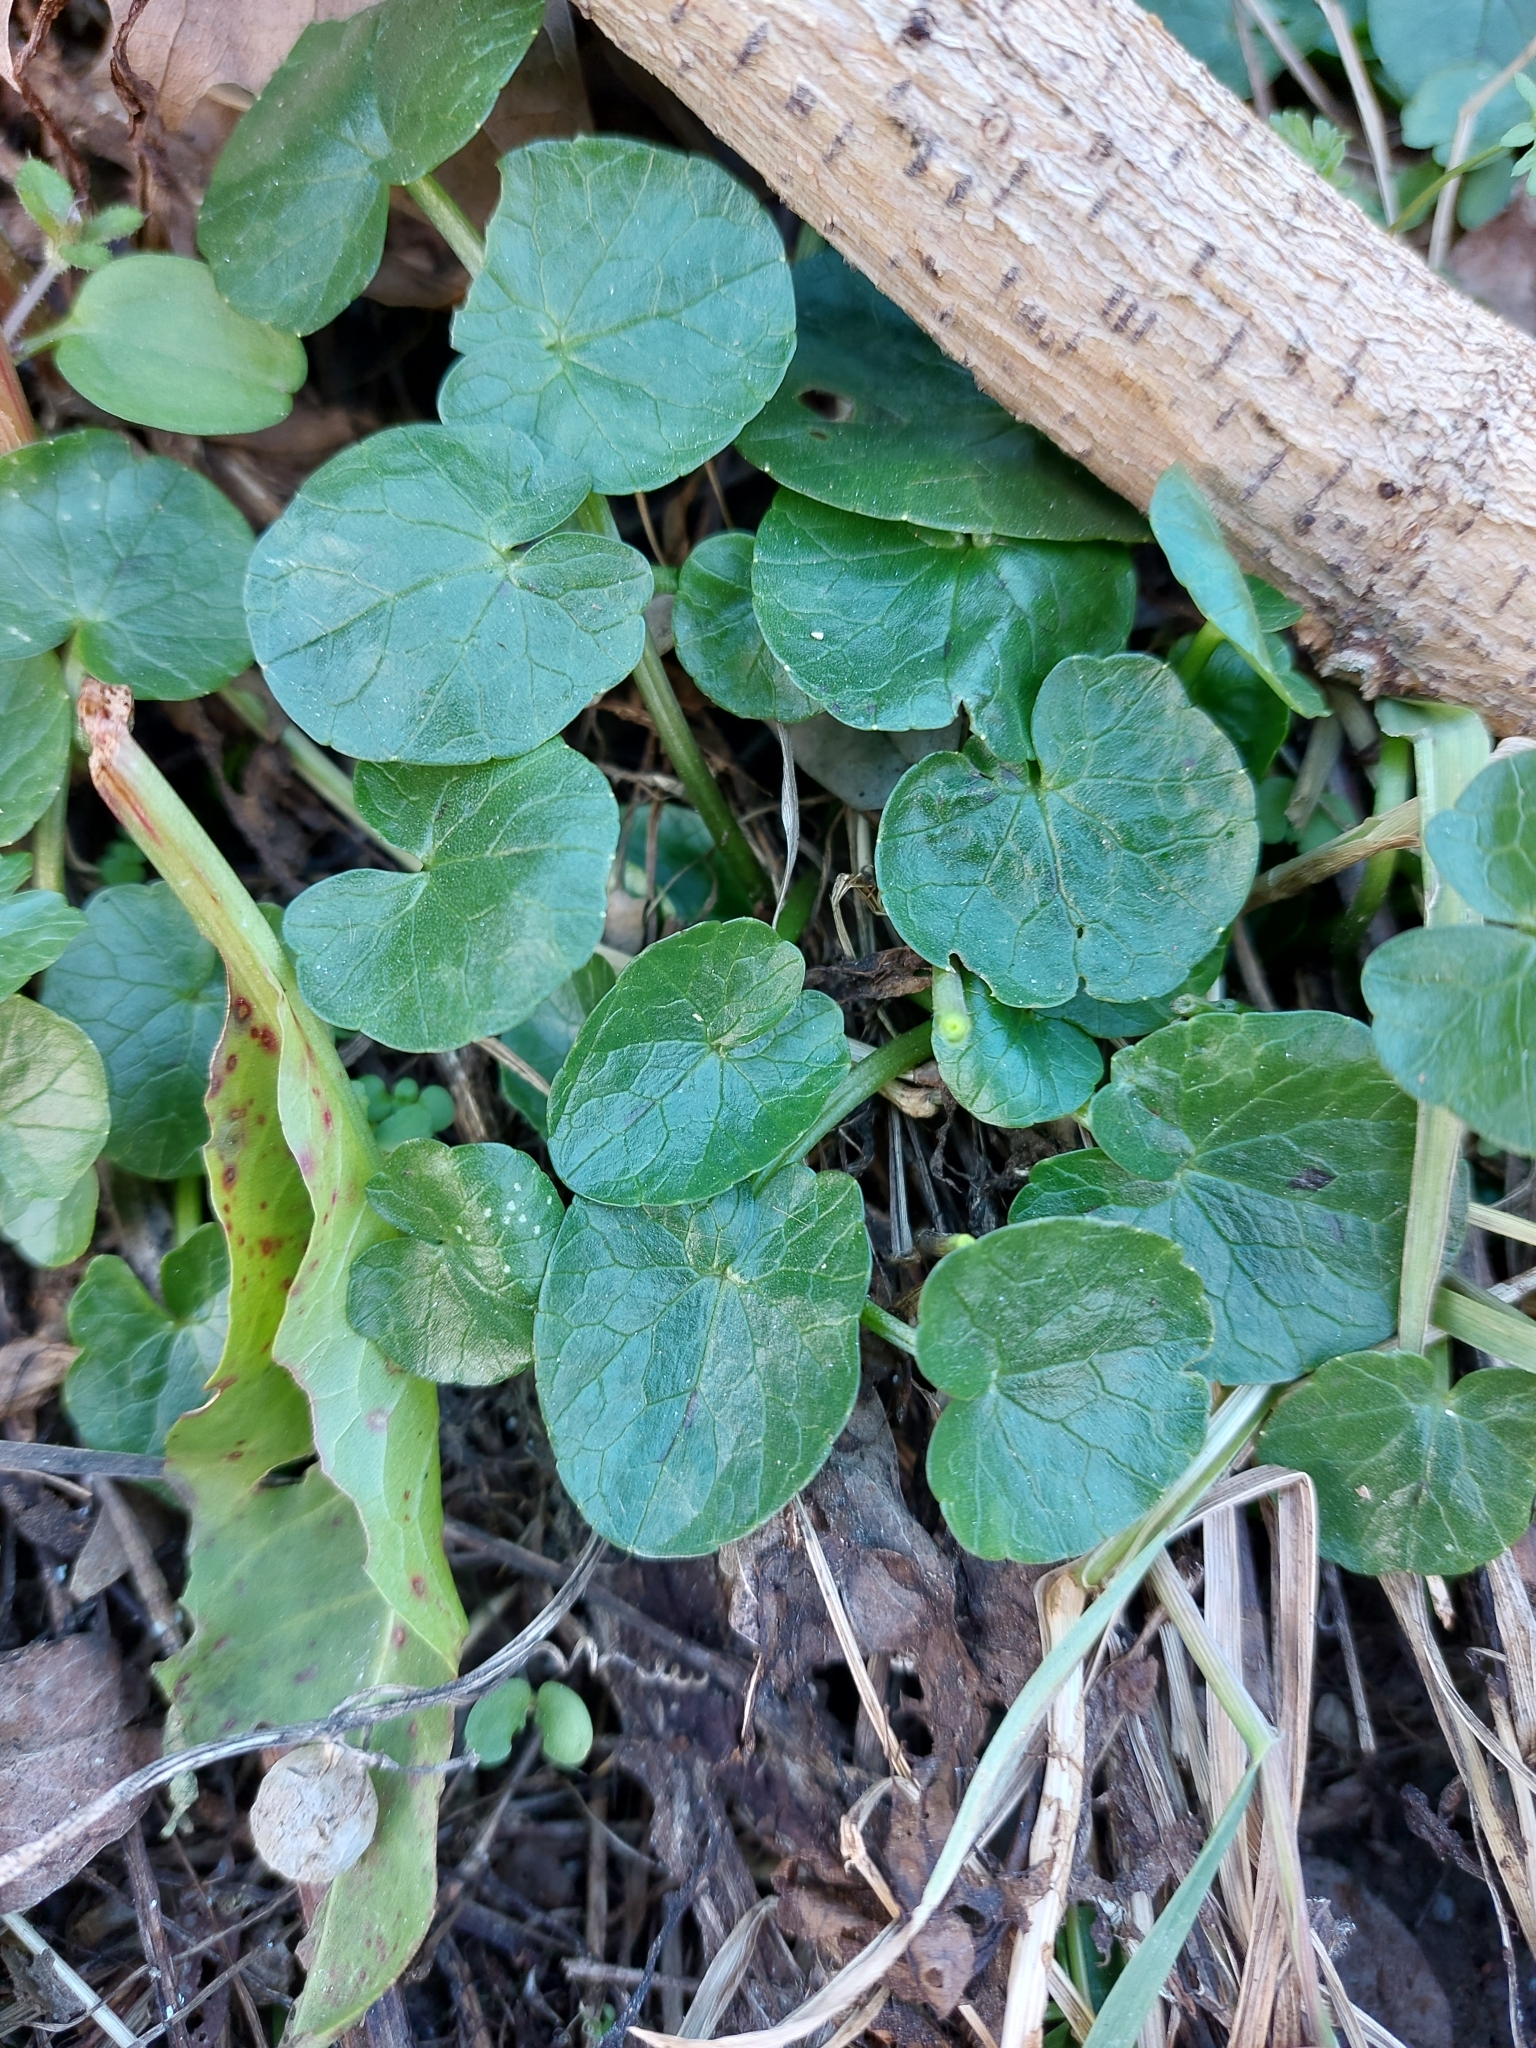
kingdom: Plantae
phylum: Tracheophyta
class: Magnoliopsida
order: Ranunculales
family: Ranunculaceae
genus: Ficaria
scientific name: Ficaria verna
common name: Lesser celandine
